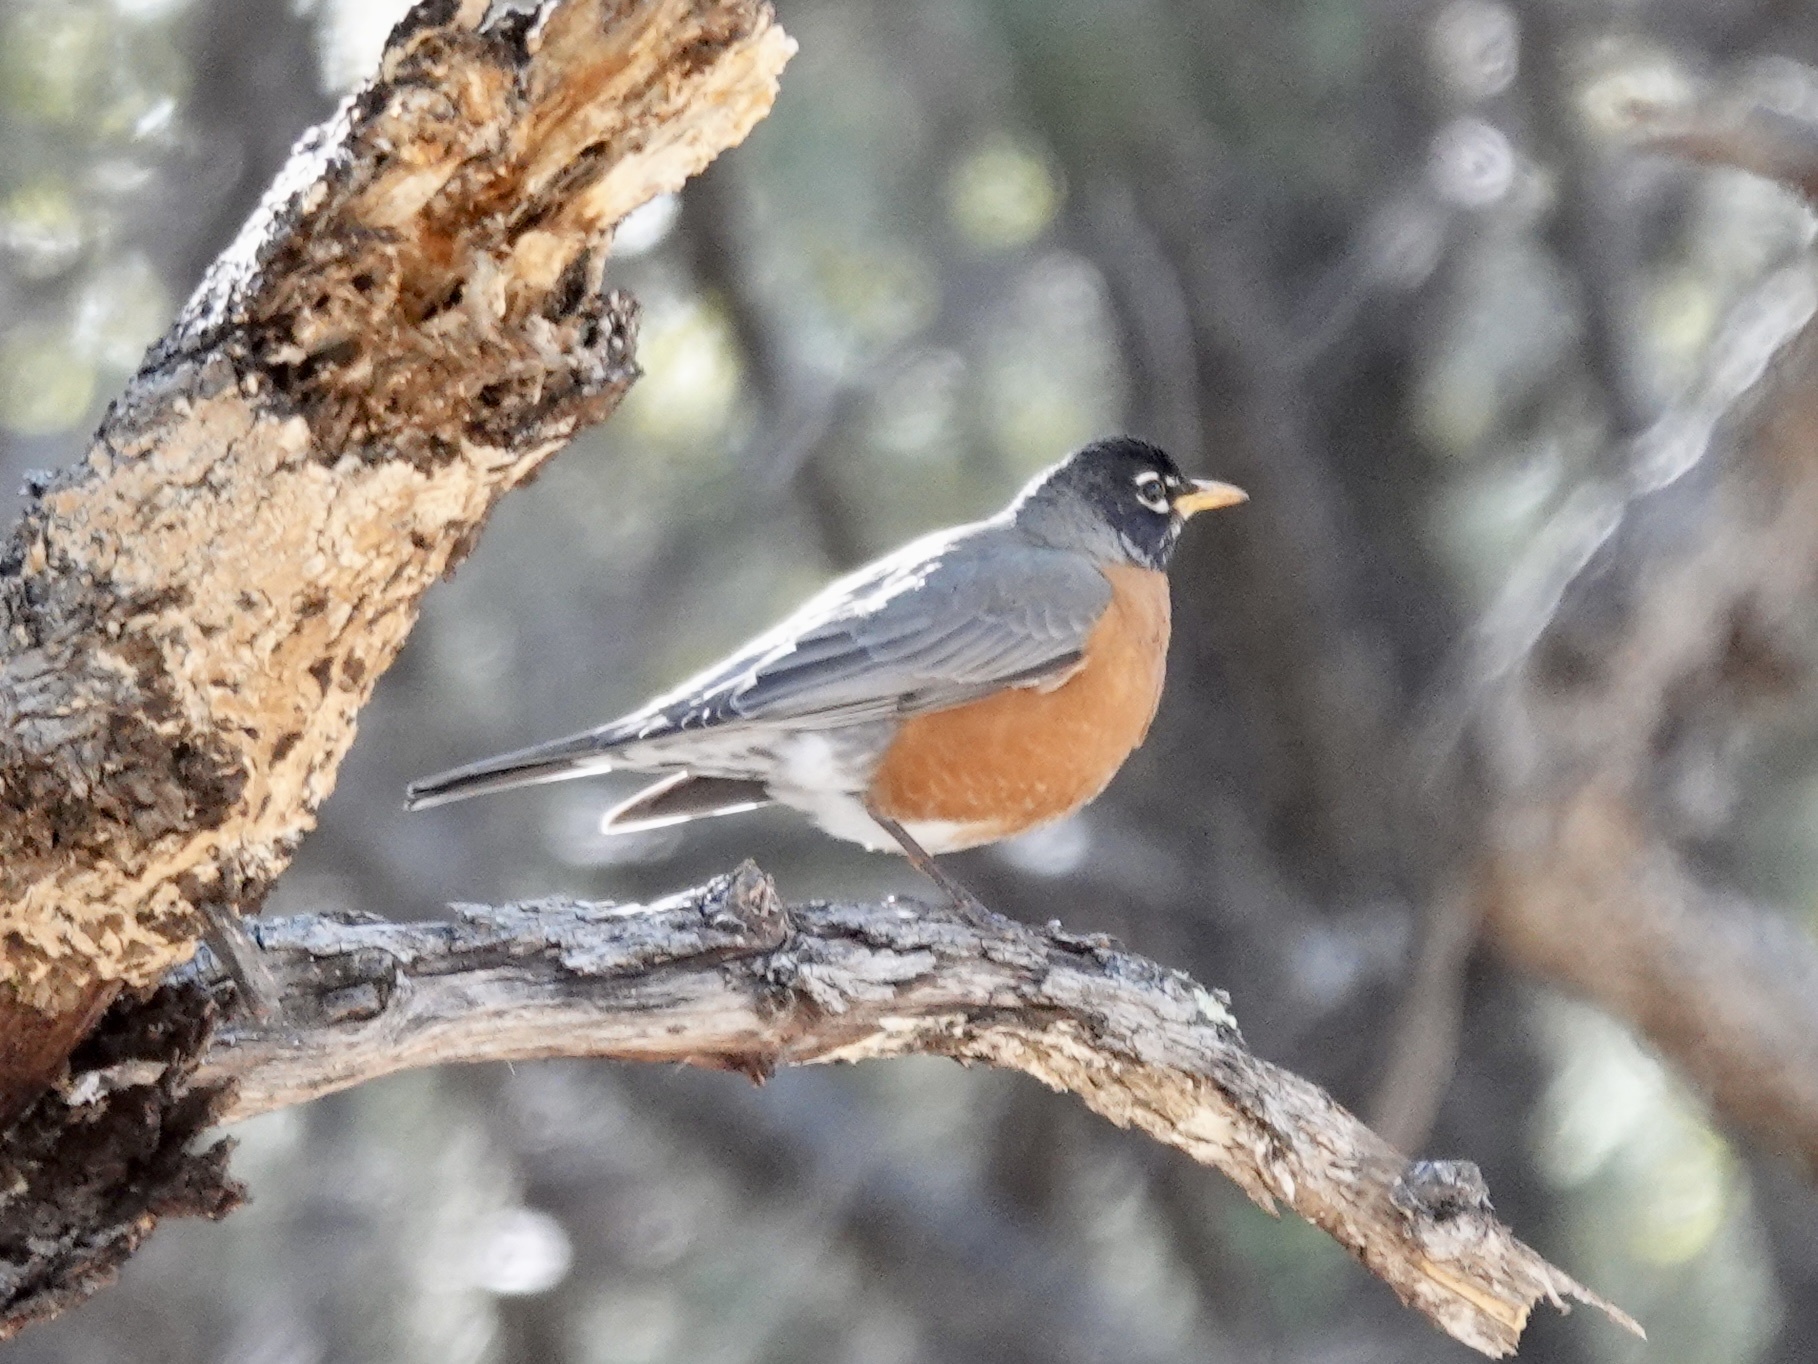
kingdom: Animalia
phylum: Chordata
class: Aves
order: Passeriformes
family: Turdidae
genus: Turdus
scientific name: Turdus migratorius
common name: American robin
